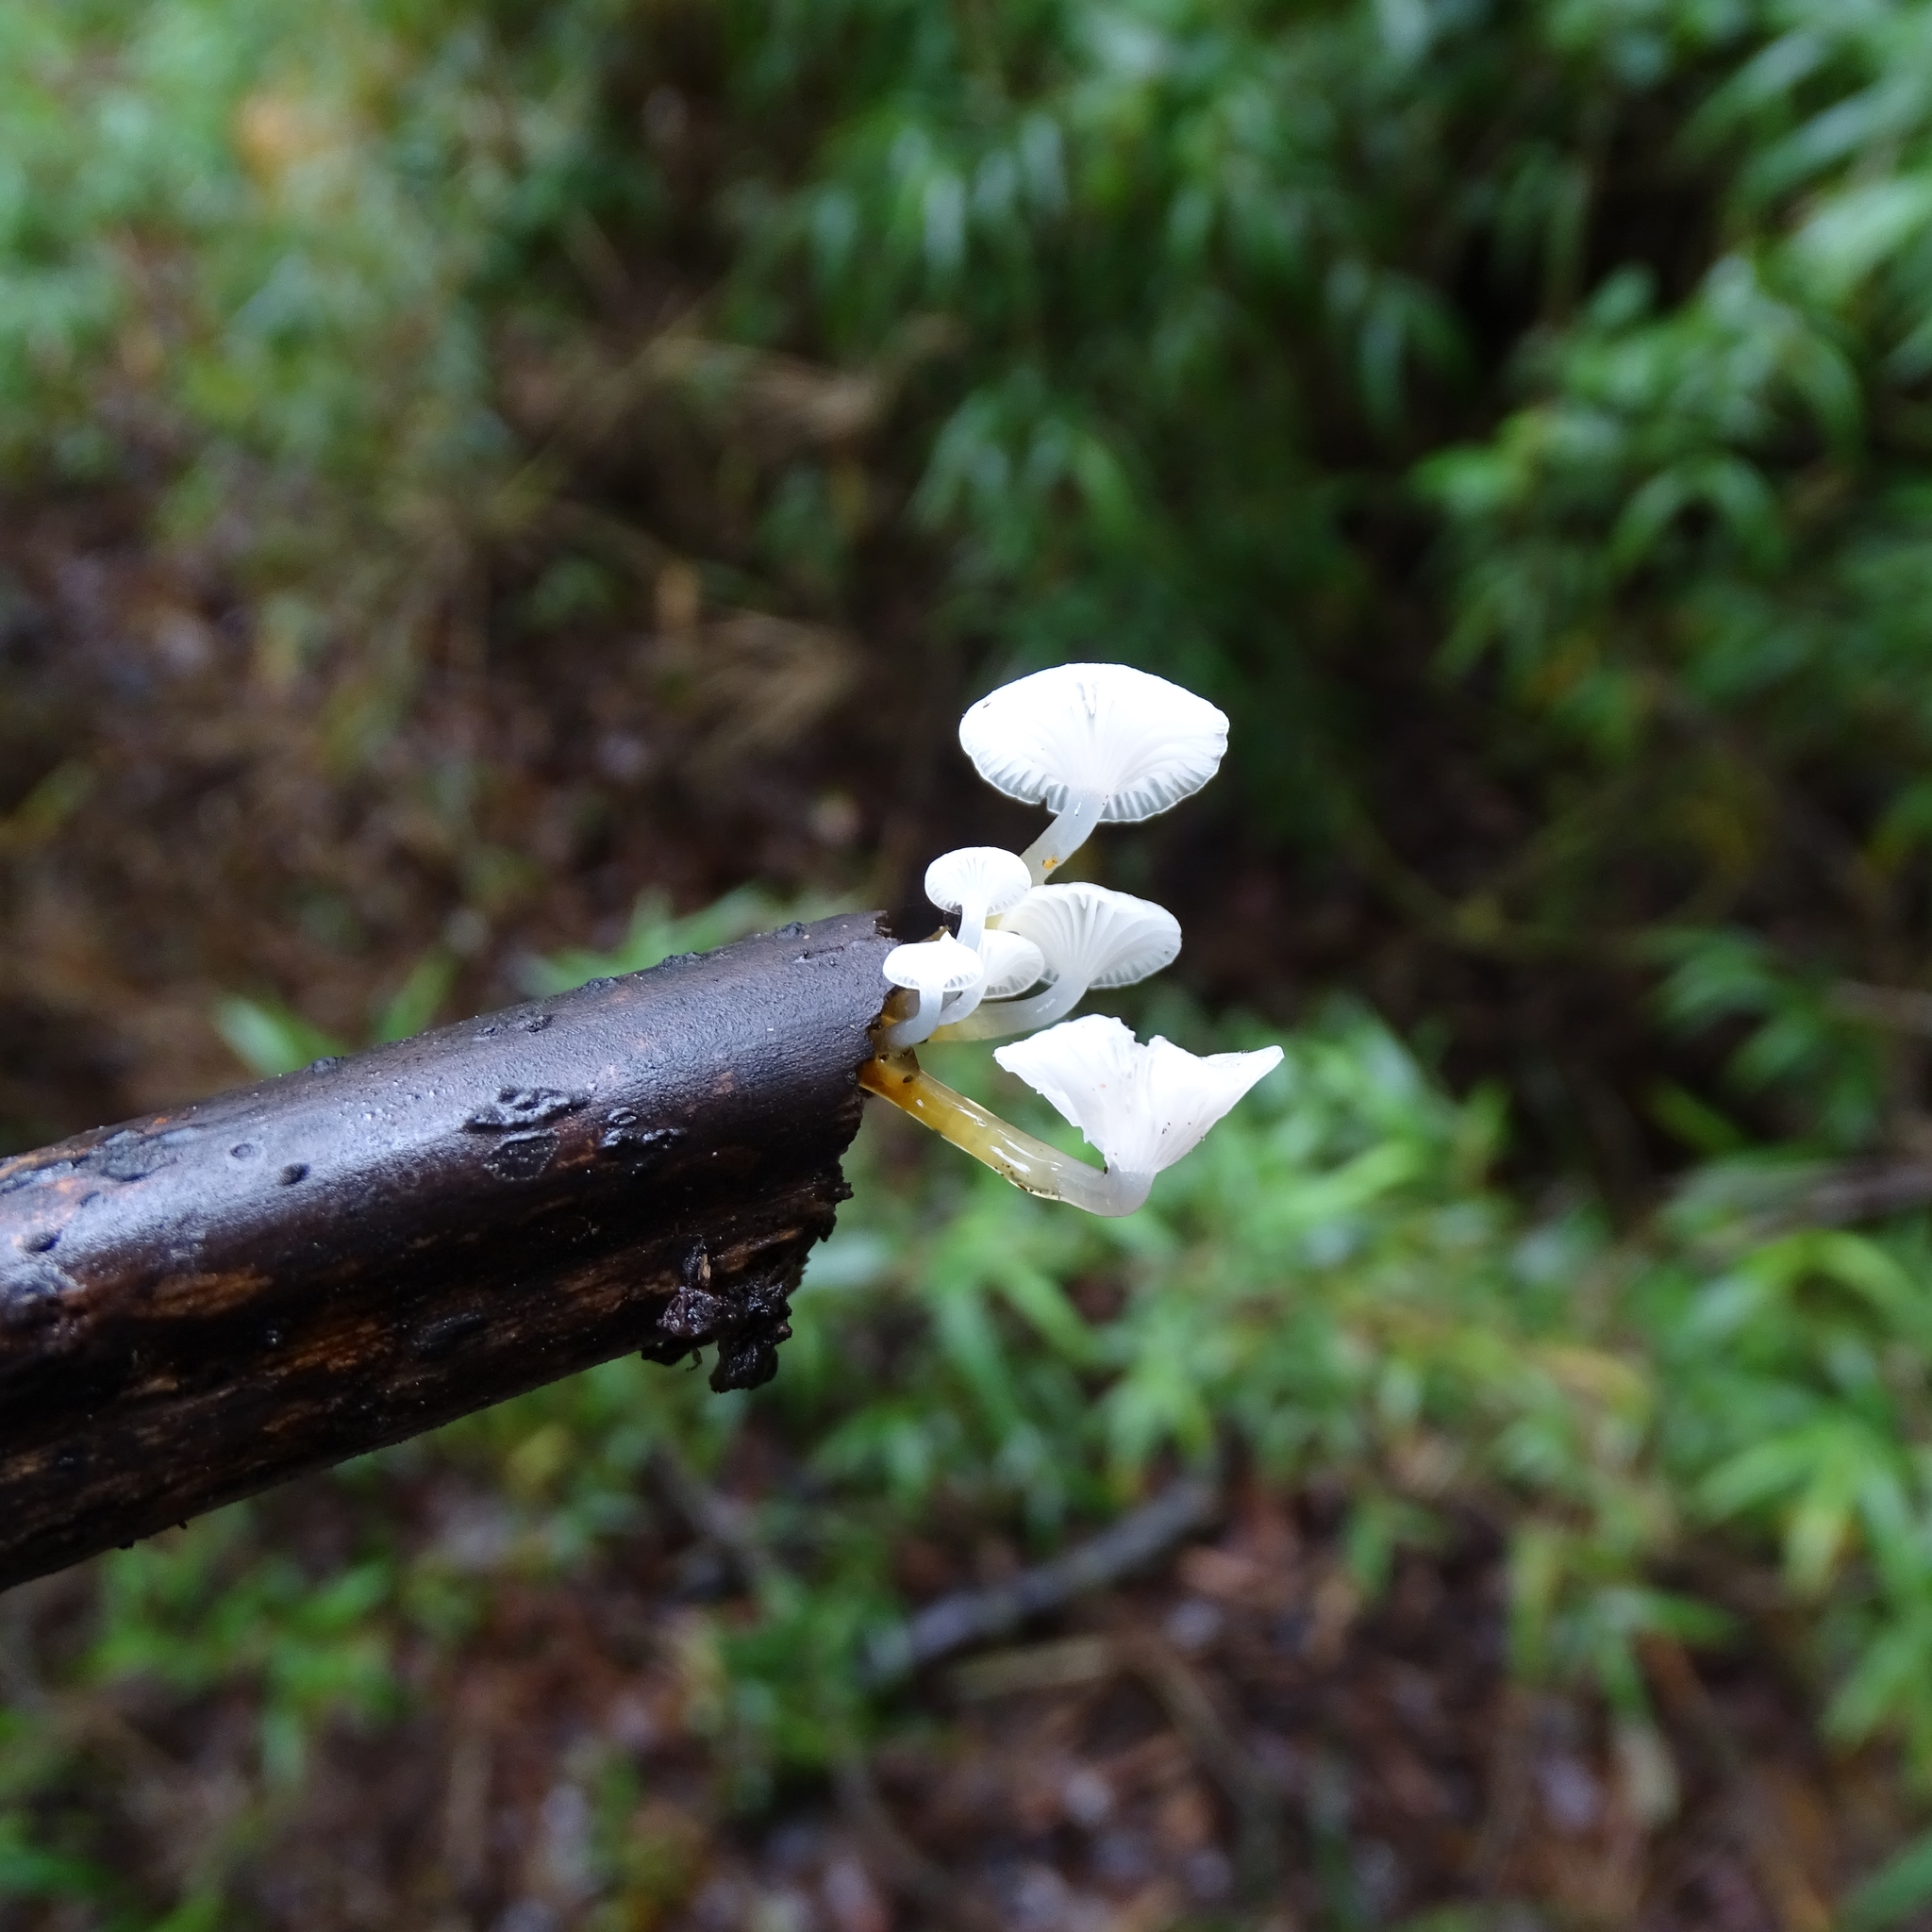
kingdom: Fungi
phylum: Basidiomycota
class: Agaricomycetes
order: Agaricales
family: Mycenaceae
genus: Mycena
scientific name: Mycena subulifera
